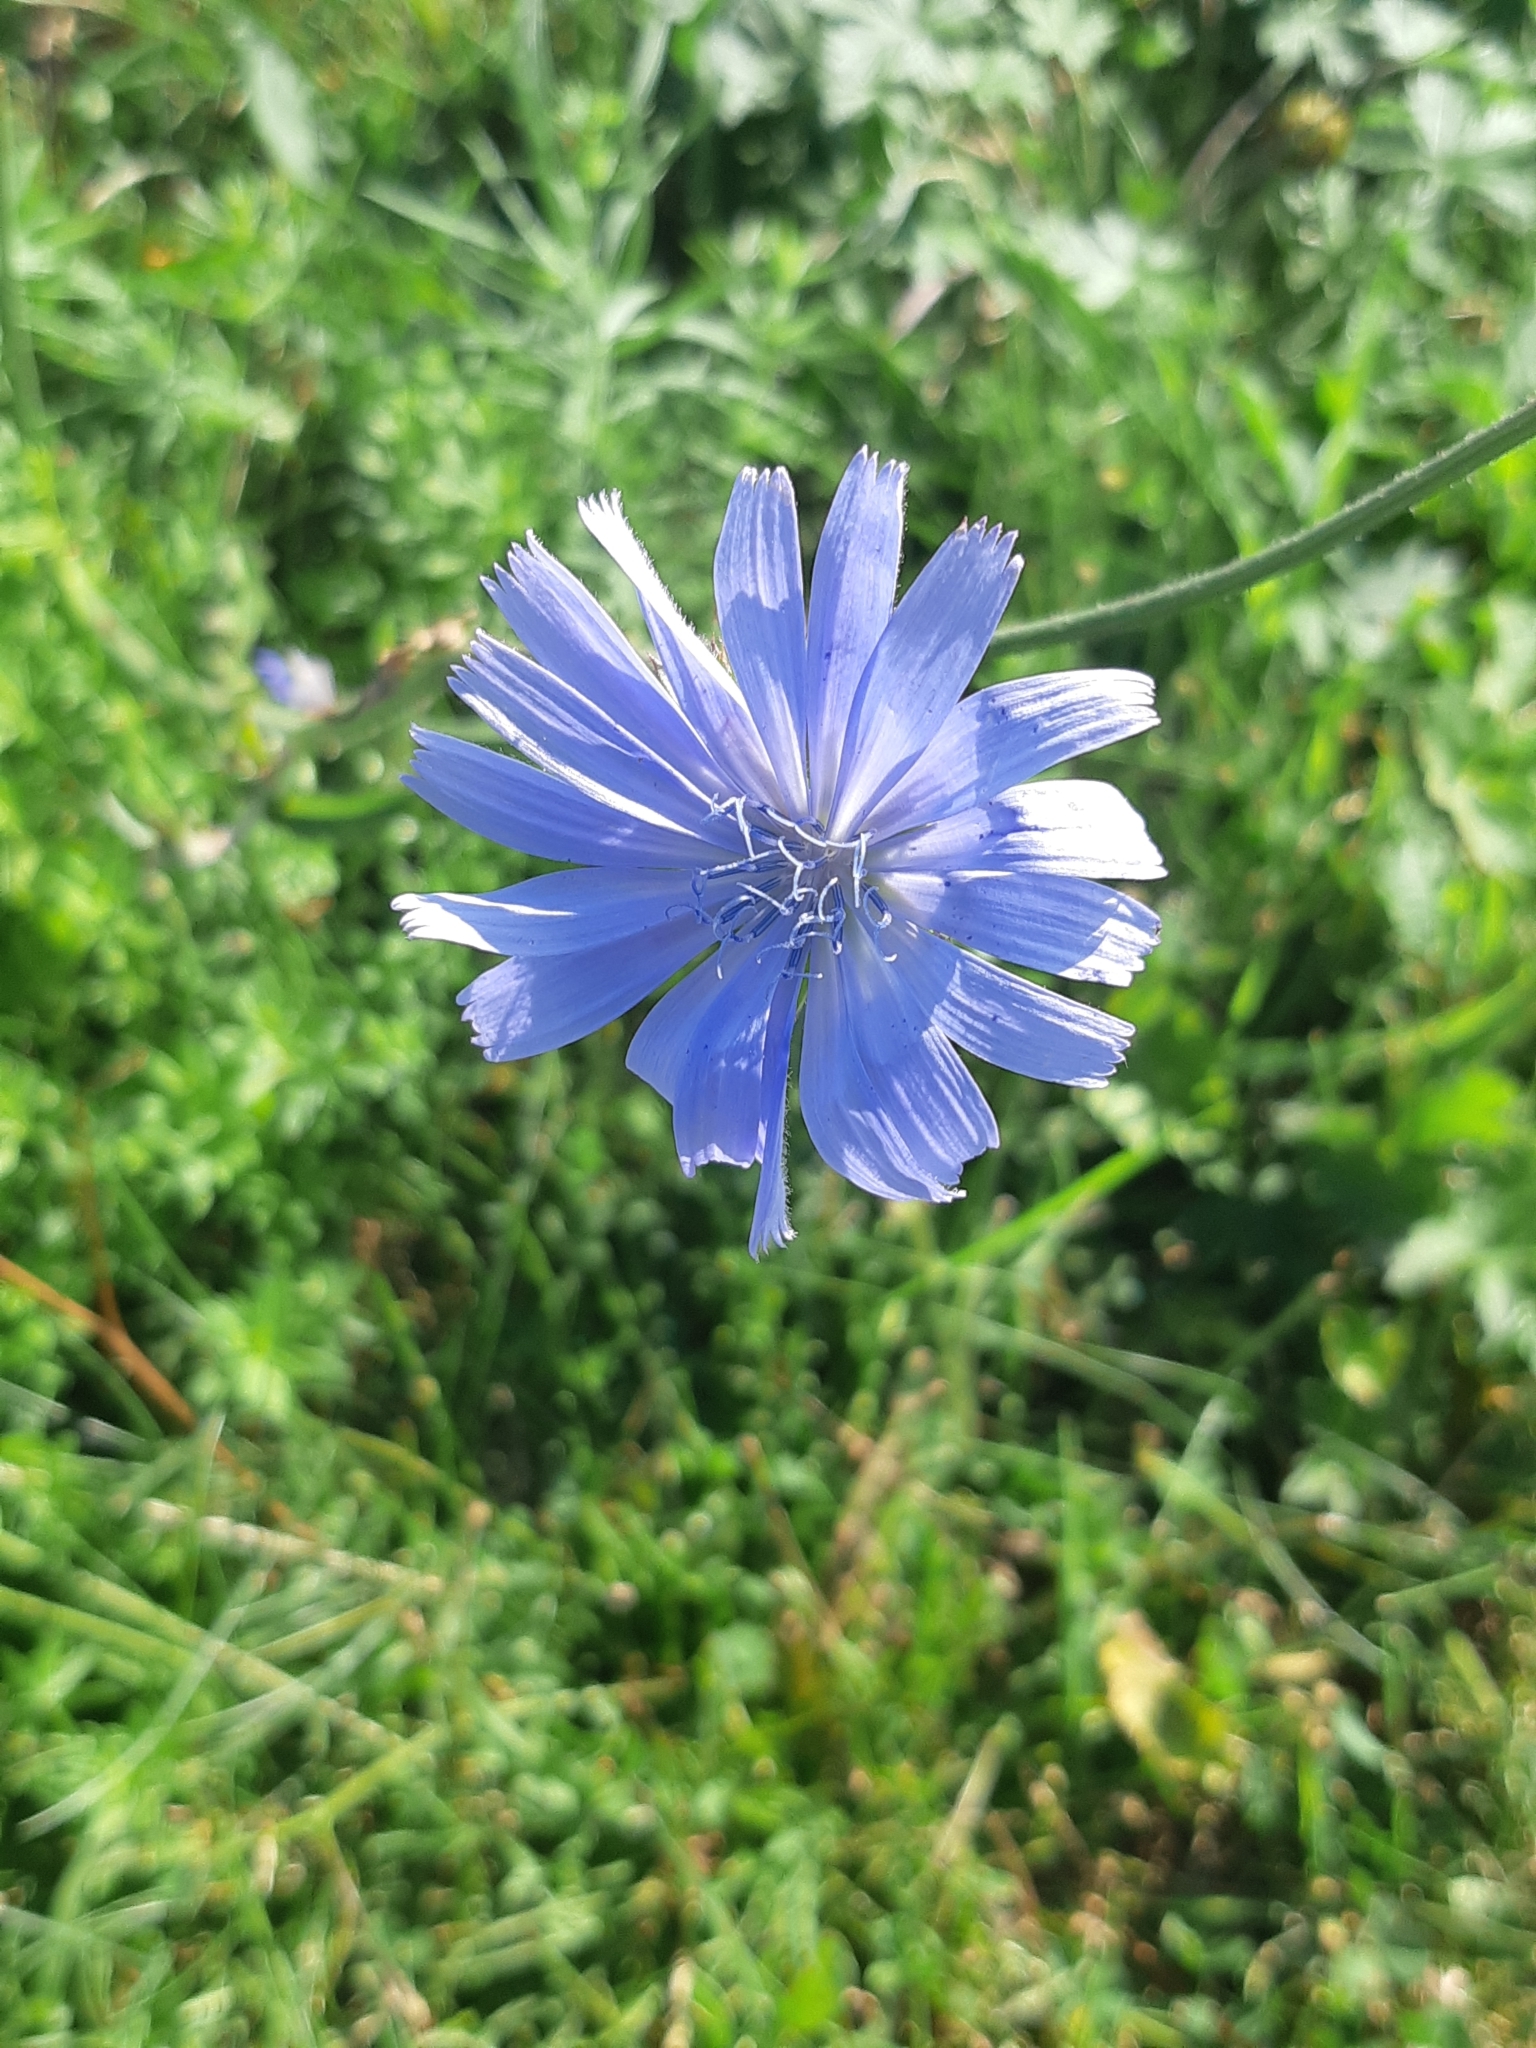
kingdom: Plantae
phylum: Tracheophyta
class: Magnoliopsida
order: Asterales
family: Asteraceae
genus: Cichorium
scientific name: Cichorium intybus
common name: Chicory
